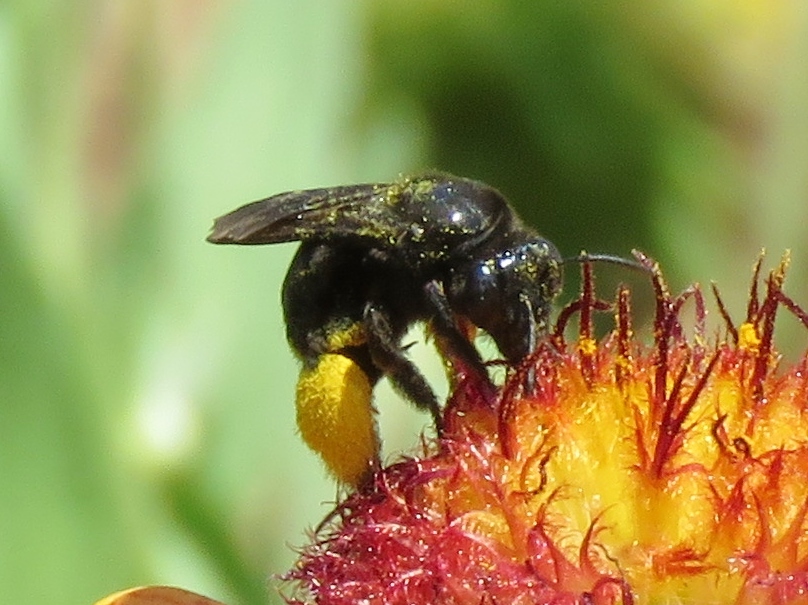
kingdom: Animalia
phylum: Arthropoda
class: Insecta
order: Hymenoptera
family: Apidae
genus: Melissodes
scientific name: Melissodes bimaculatus
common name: Two-spotted long-horned bee
